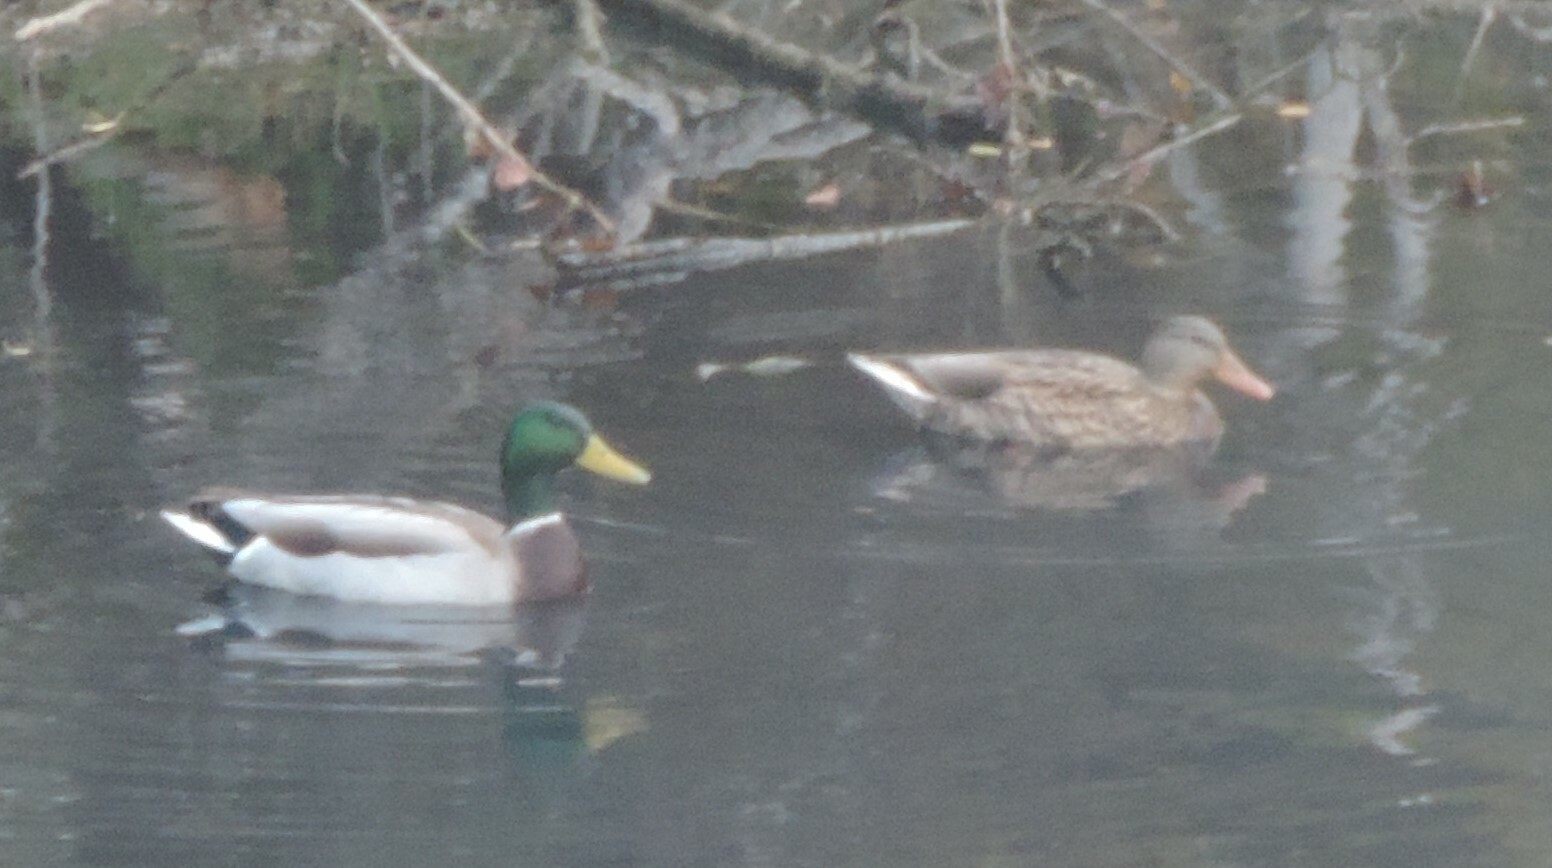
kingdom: Animalia
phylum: Chordata
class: Aves
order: Anseriformes
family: Anatidae
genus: Anas
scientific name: Anas platyrhynchos
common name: Mallard
